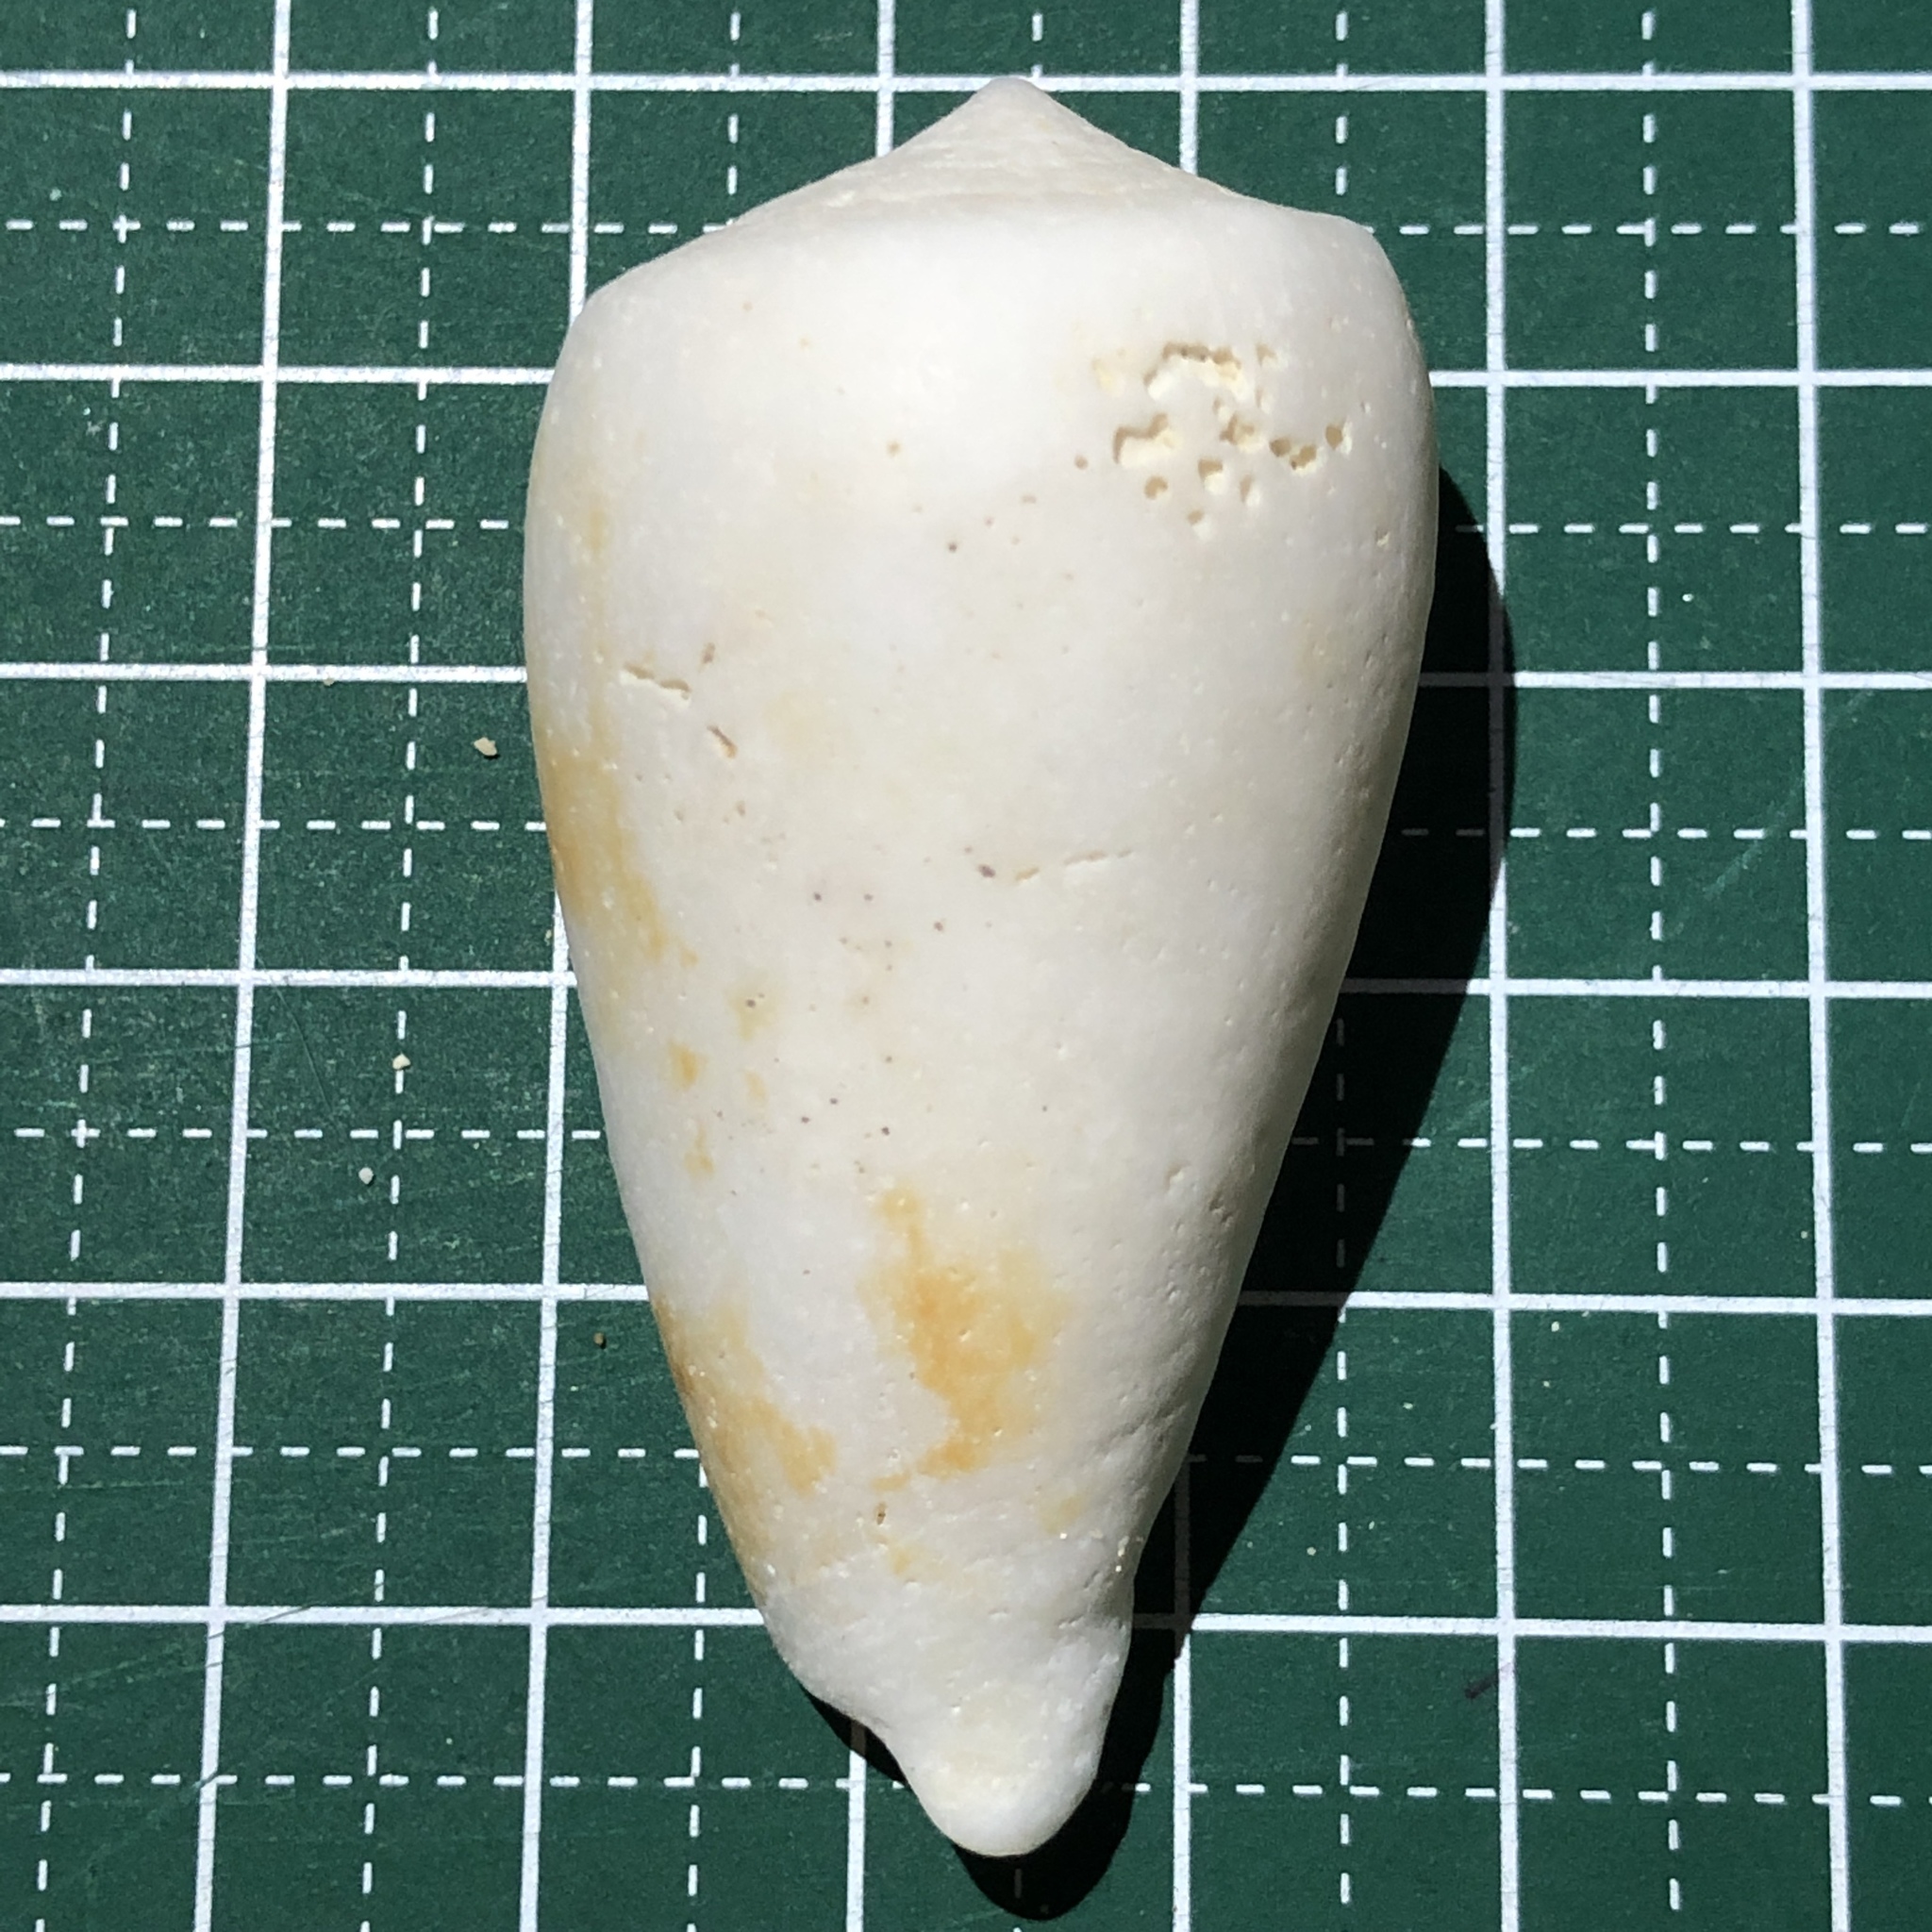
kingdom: Animalia
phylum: Mollusca
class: Gastropoda
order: Neogastropoda
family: Conidae
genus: Conus
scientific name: Conus spectrum
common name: Spectral cone
